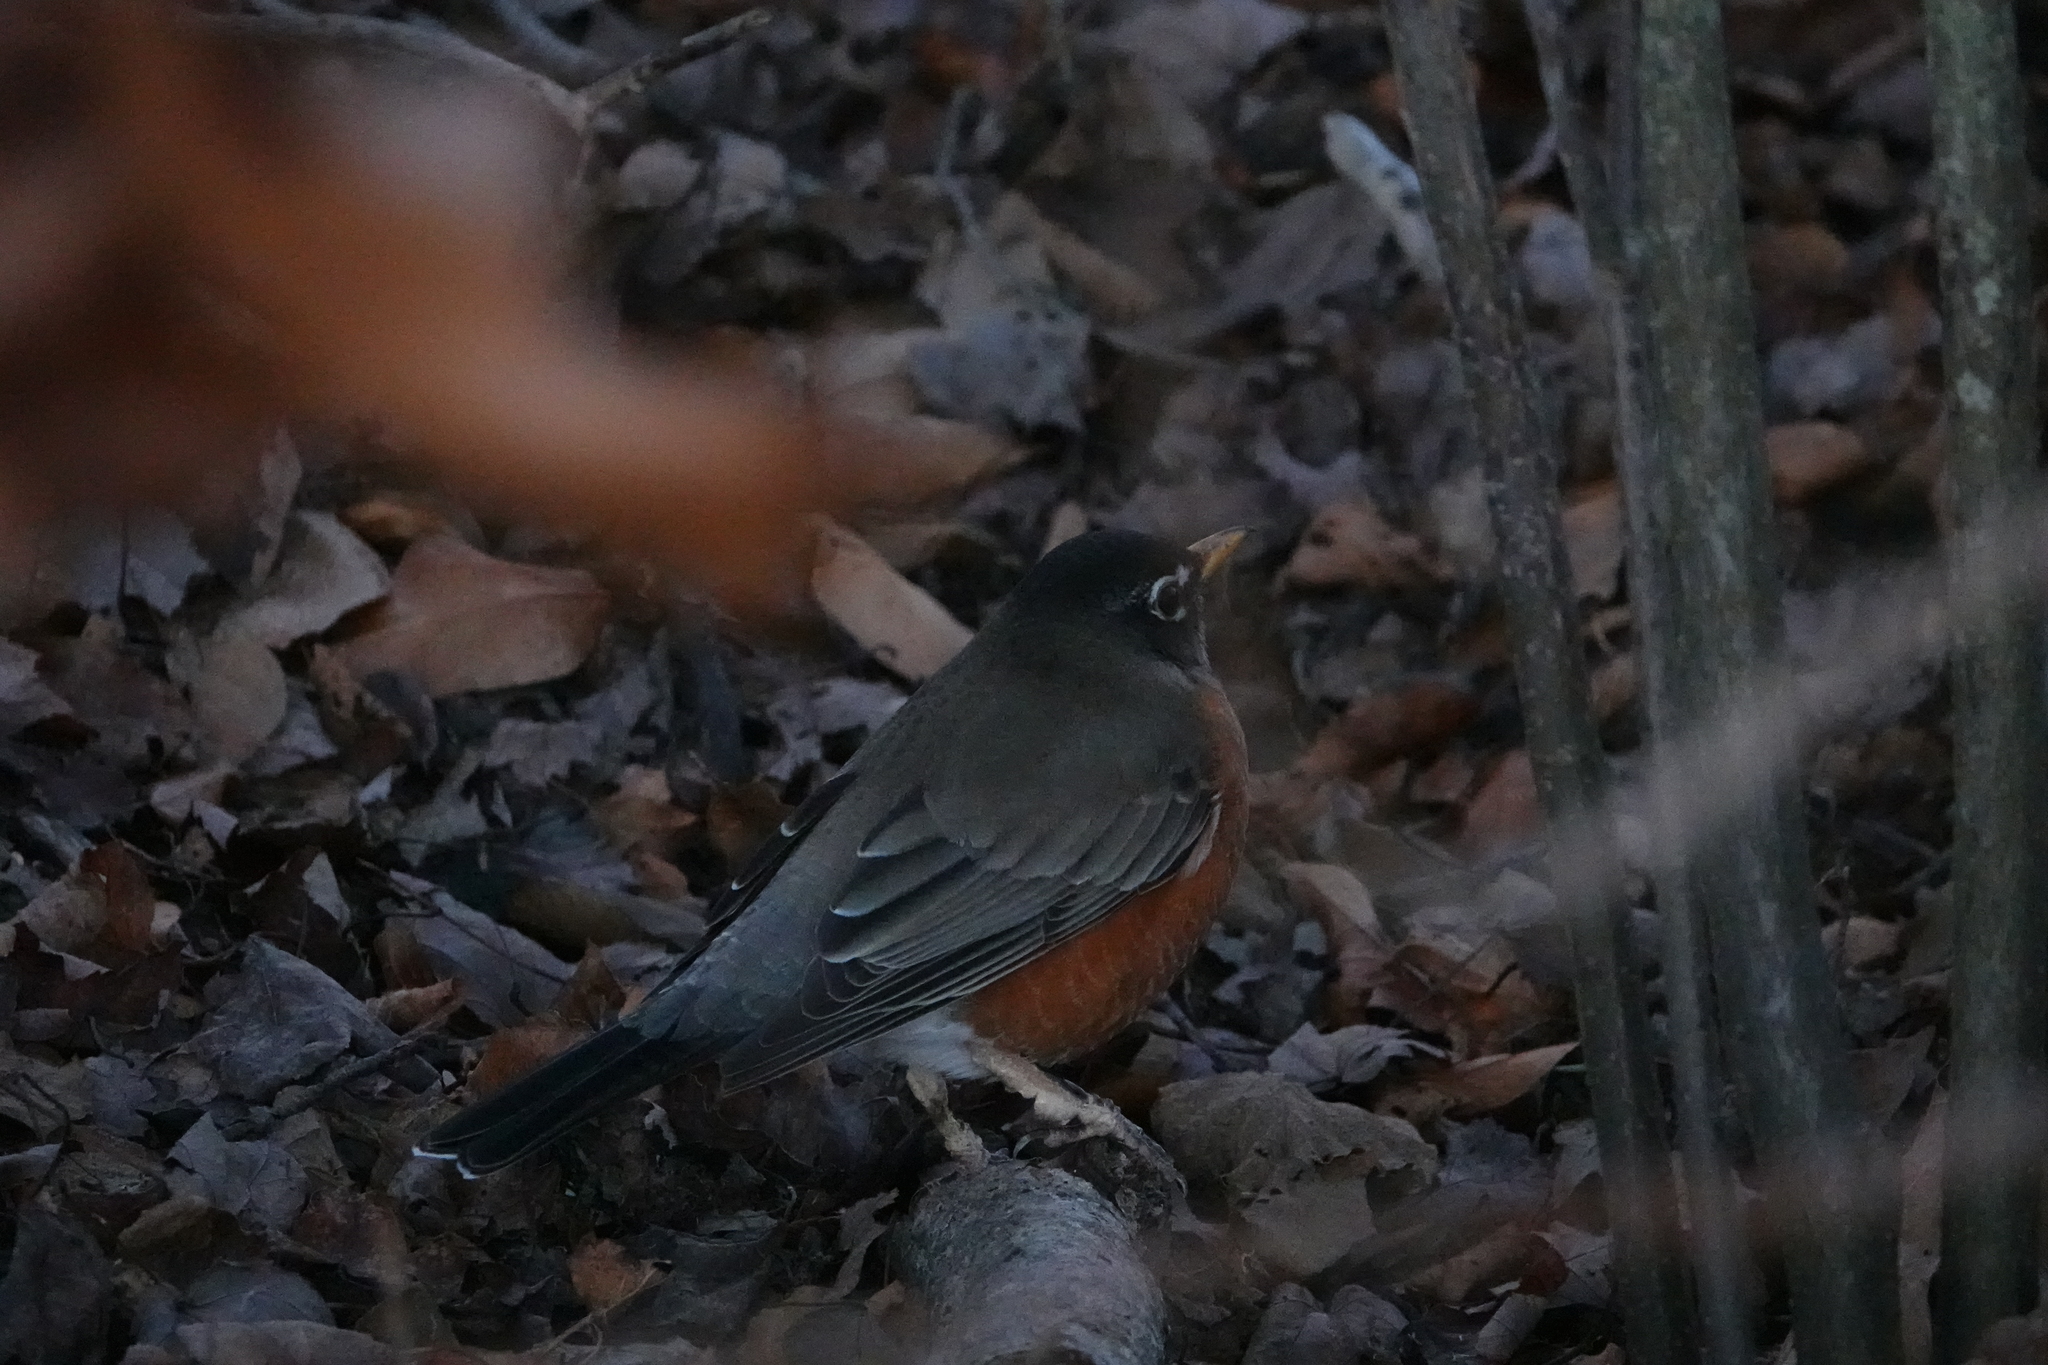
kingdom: Animalia
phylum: Chordata
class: Aves
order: Passeriformes
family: Turdidae
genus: Turdus
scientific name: Turdus migratorius
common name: American robin
